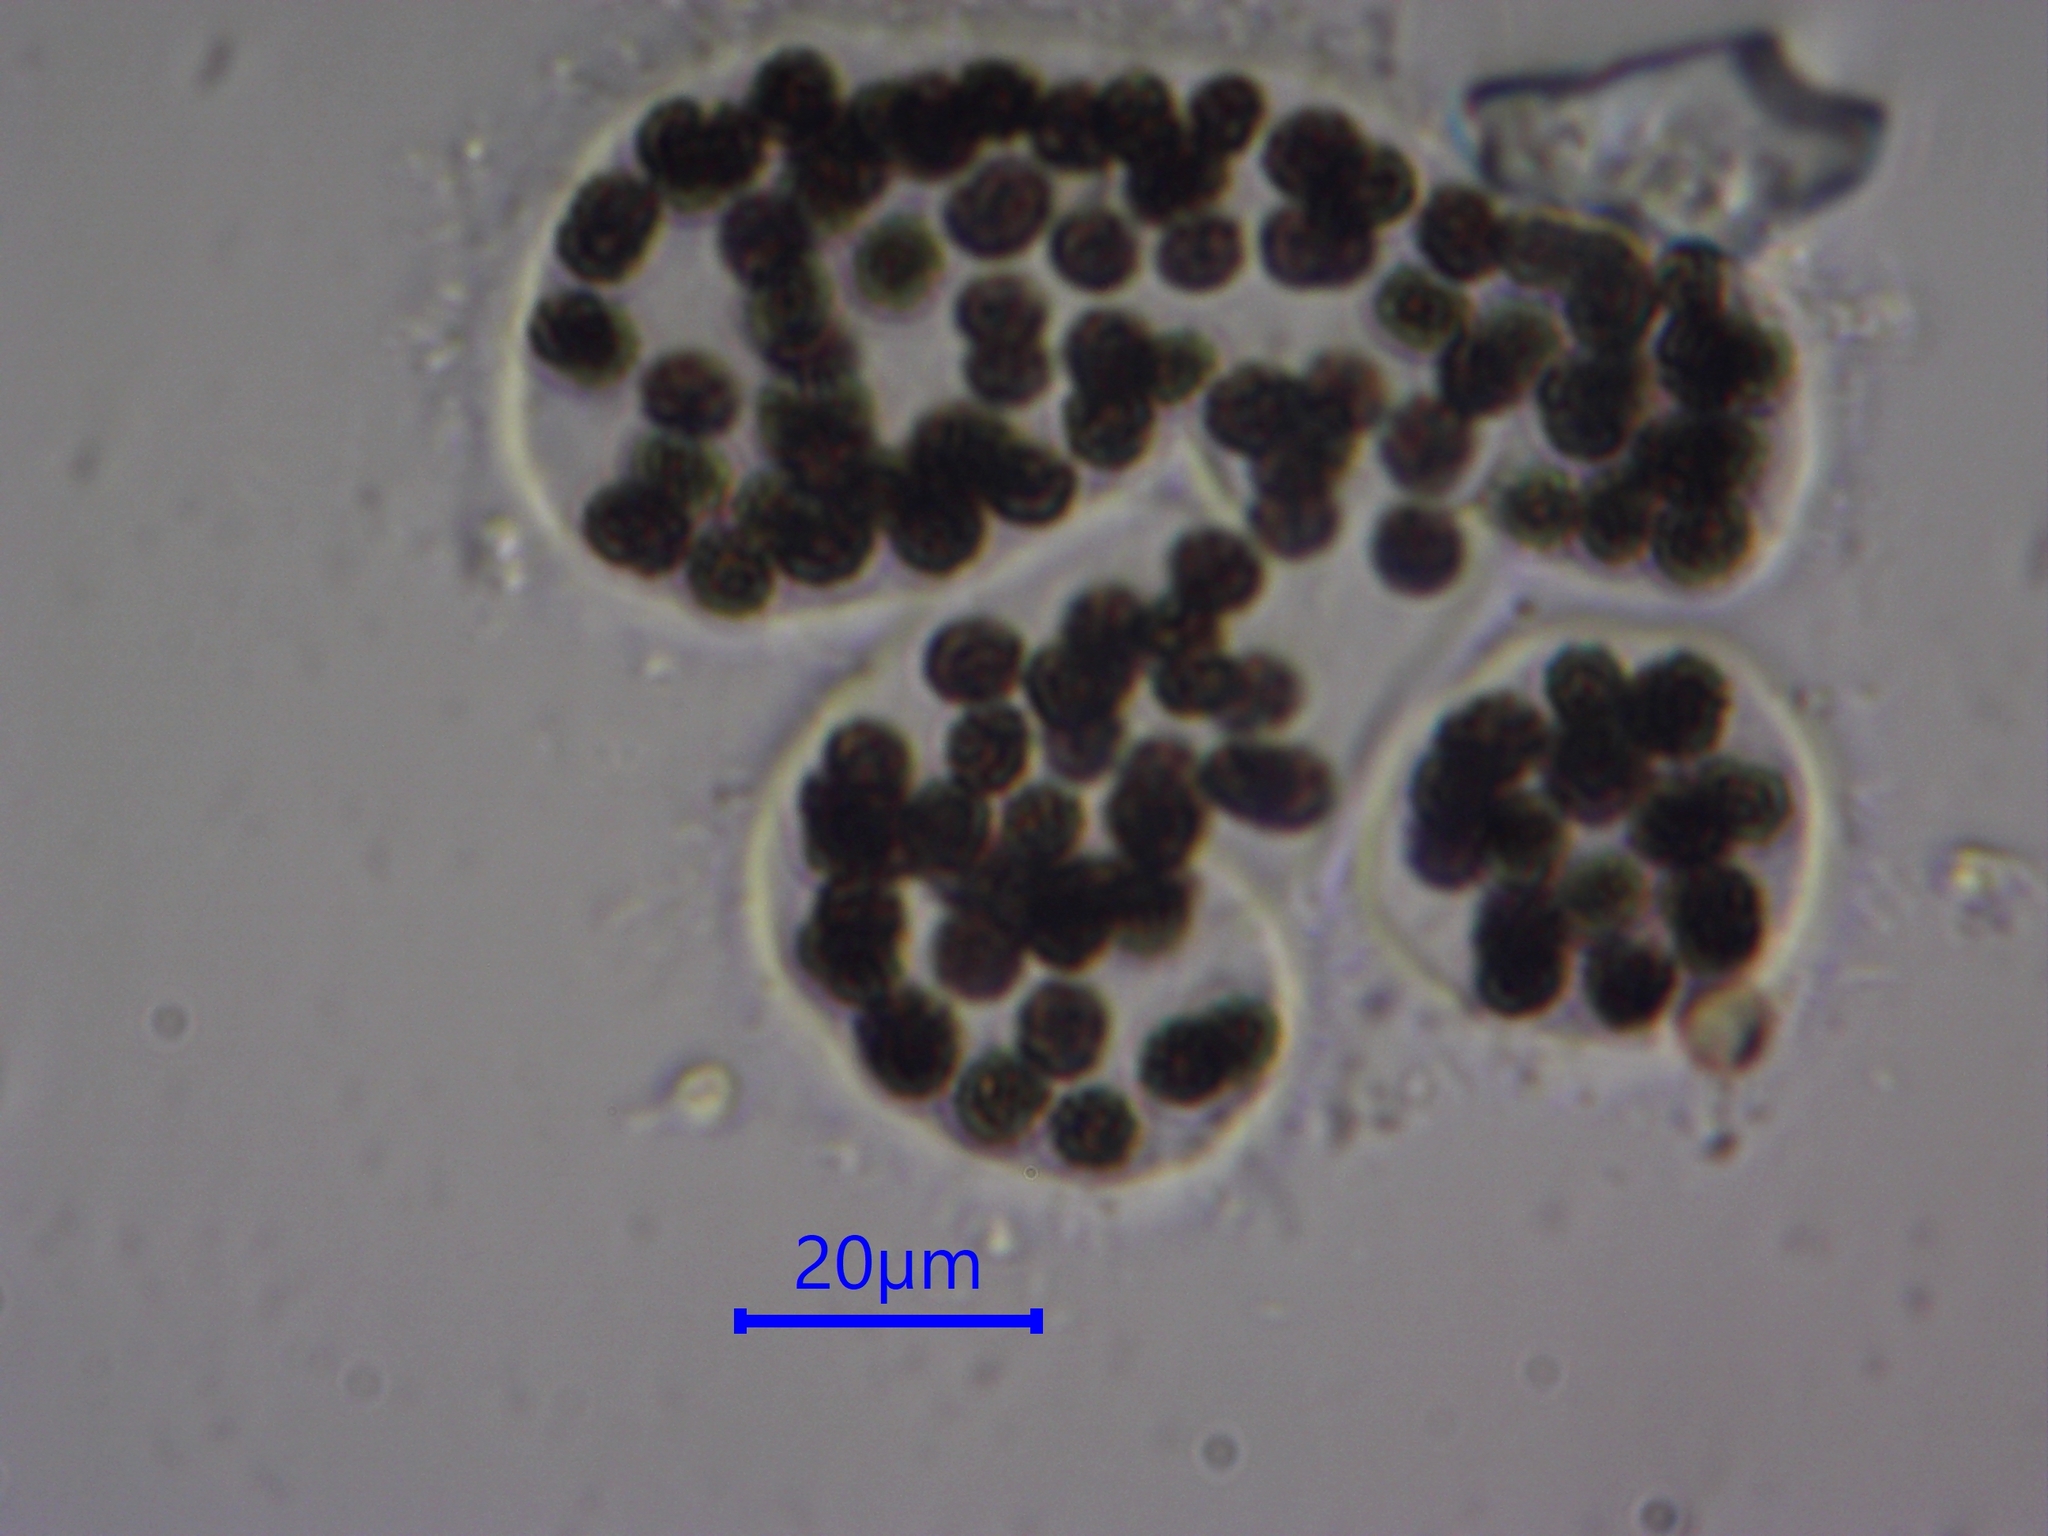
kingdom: Bacteria
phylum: Cyanobacteria
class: Cyanobacteriia
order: Cyanobacteriales
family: Microcystaceae
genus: Microcystis
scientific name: Microcystis wesenbergii
